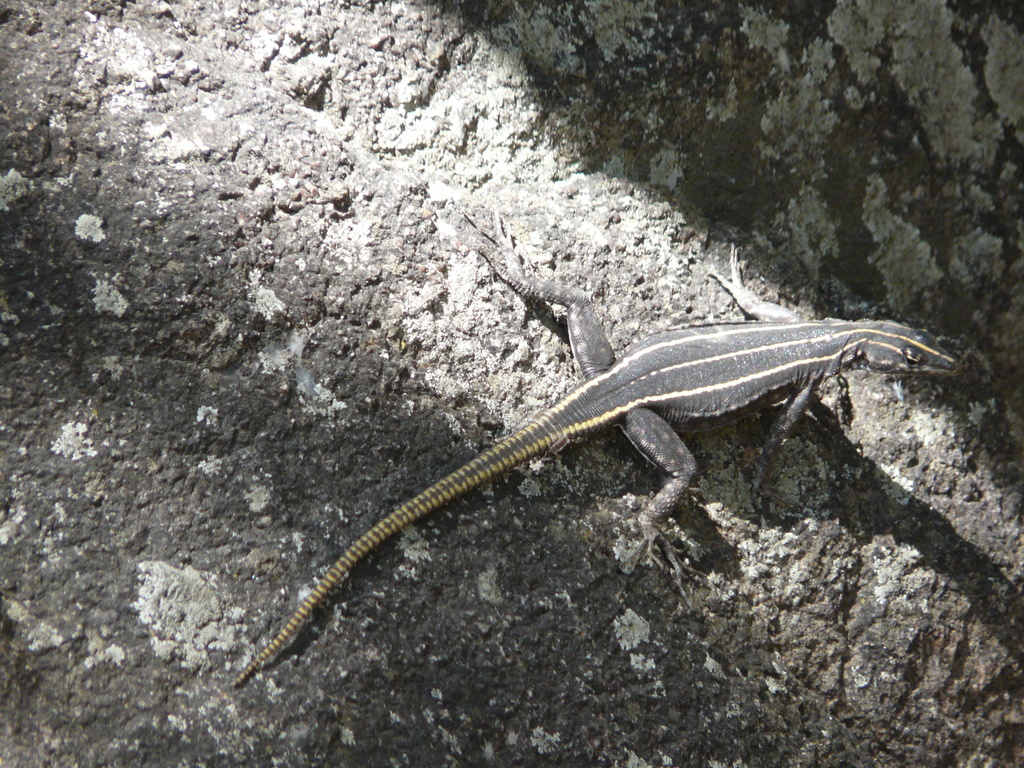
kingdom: Animalia
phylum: Chordata
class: Squamata
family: Cordylidae
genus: Platysaurus
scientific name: Platysaurus intermedius
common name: Common flat lizard
